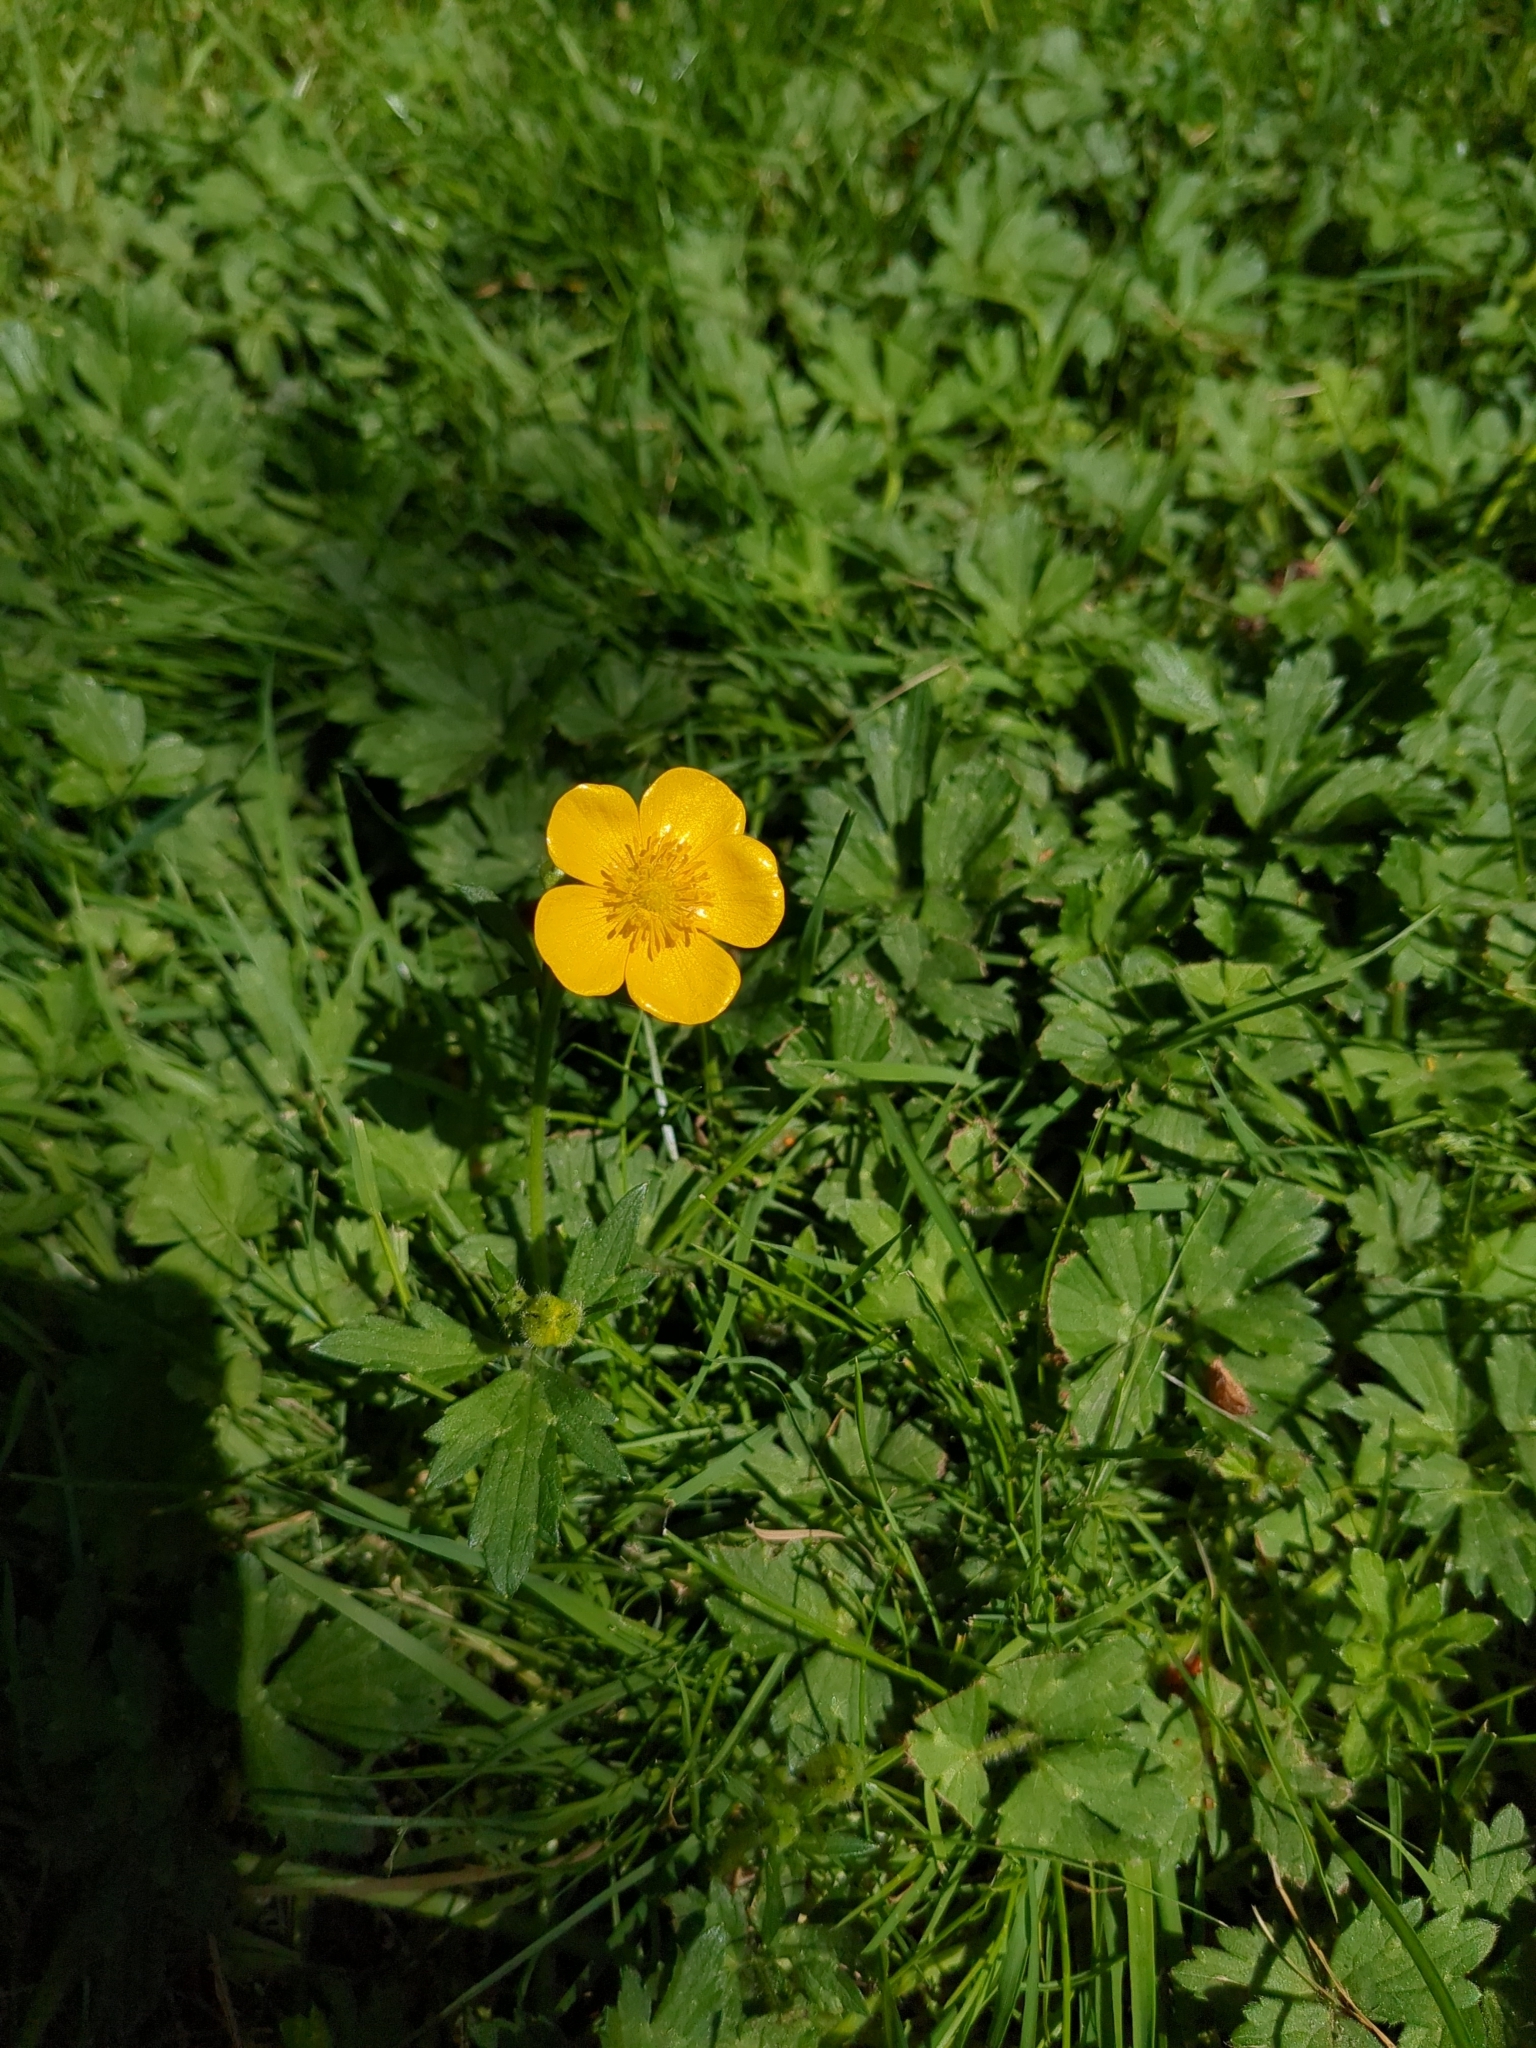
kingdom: Plantae
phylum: Tracheophyta
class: Magnoliopsida
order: Ranunculales
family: Ranunculaceae
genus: Ranunculus
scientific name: Ranunculus repens
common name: Creeping buttercup
